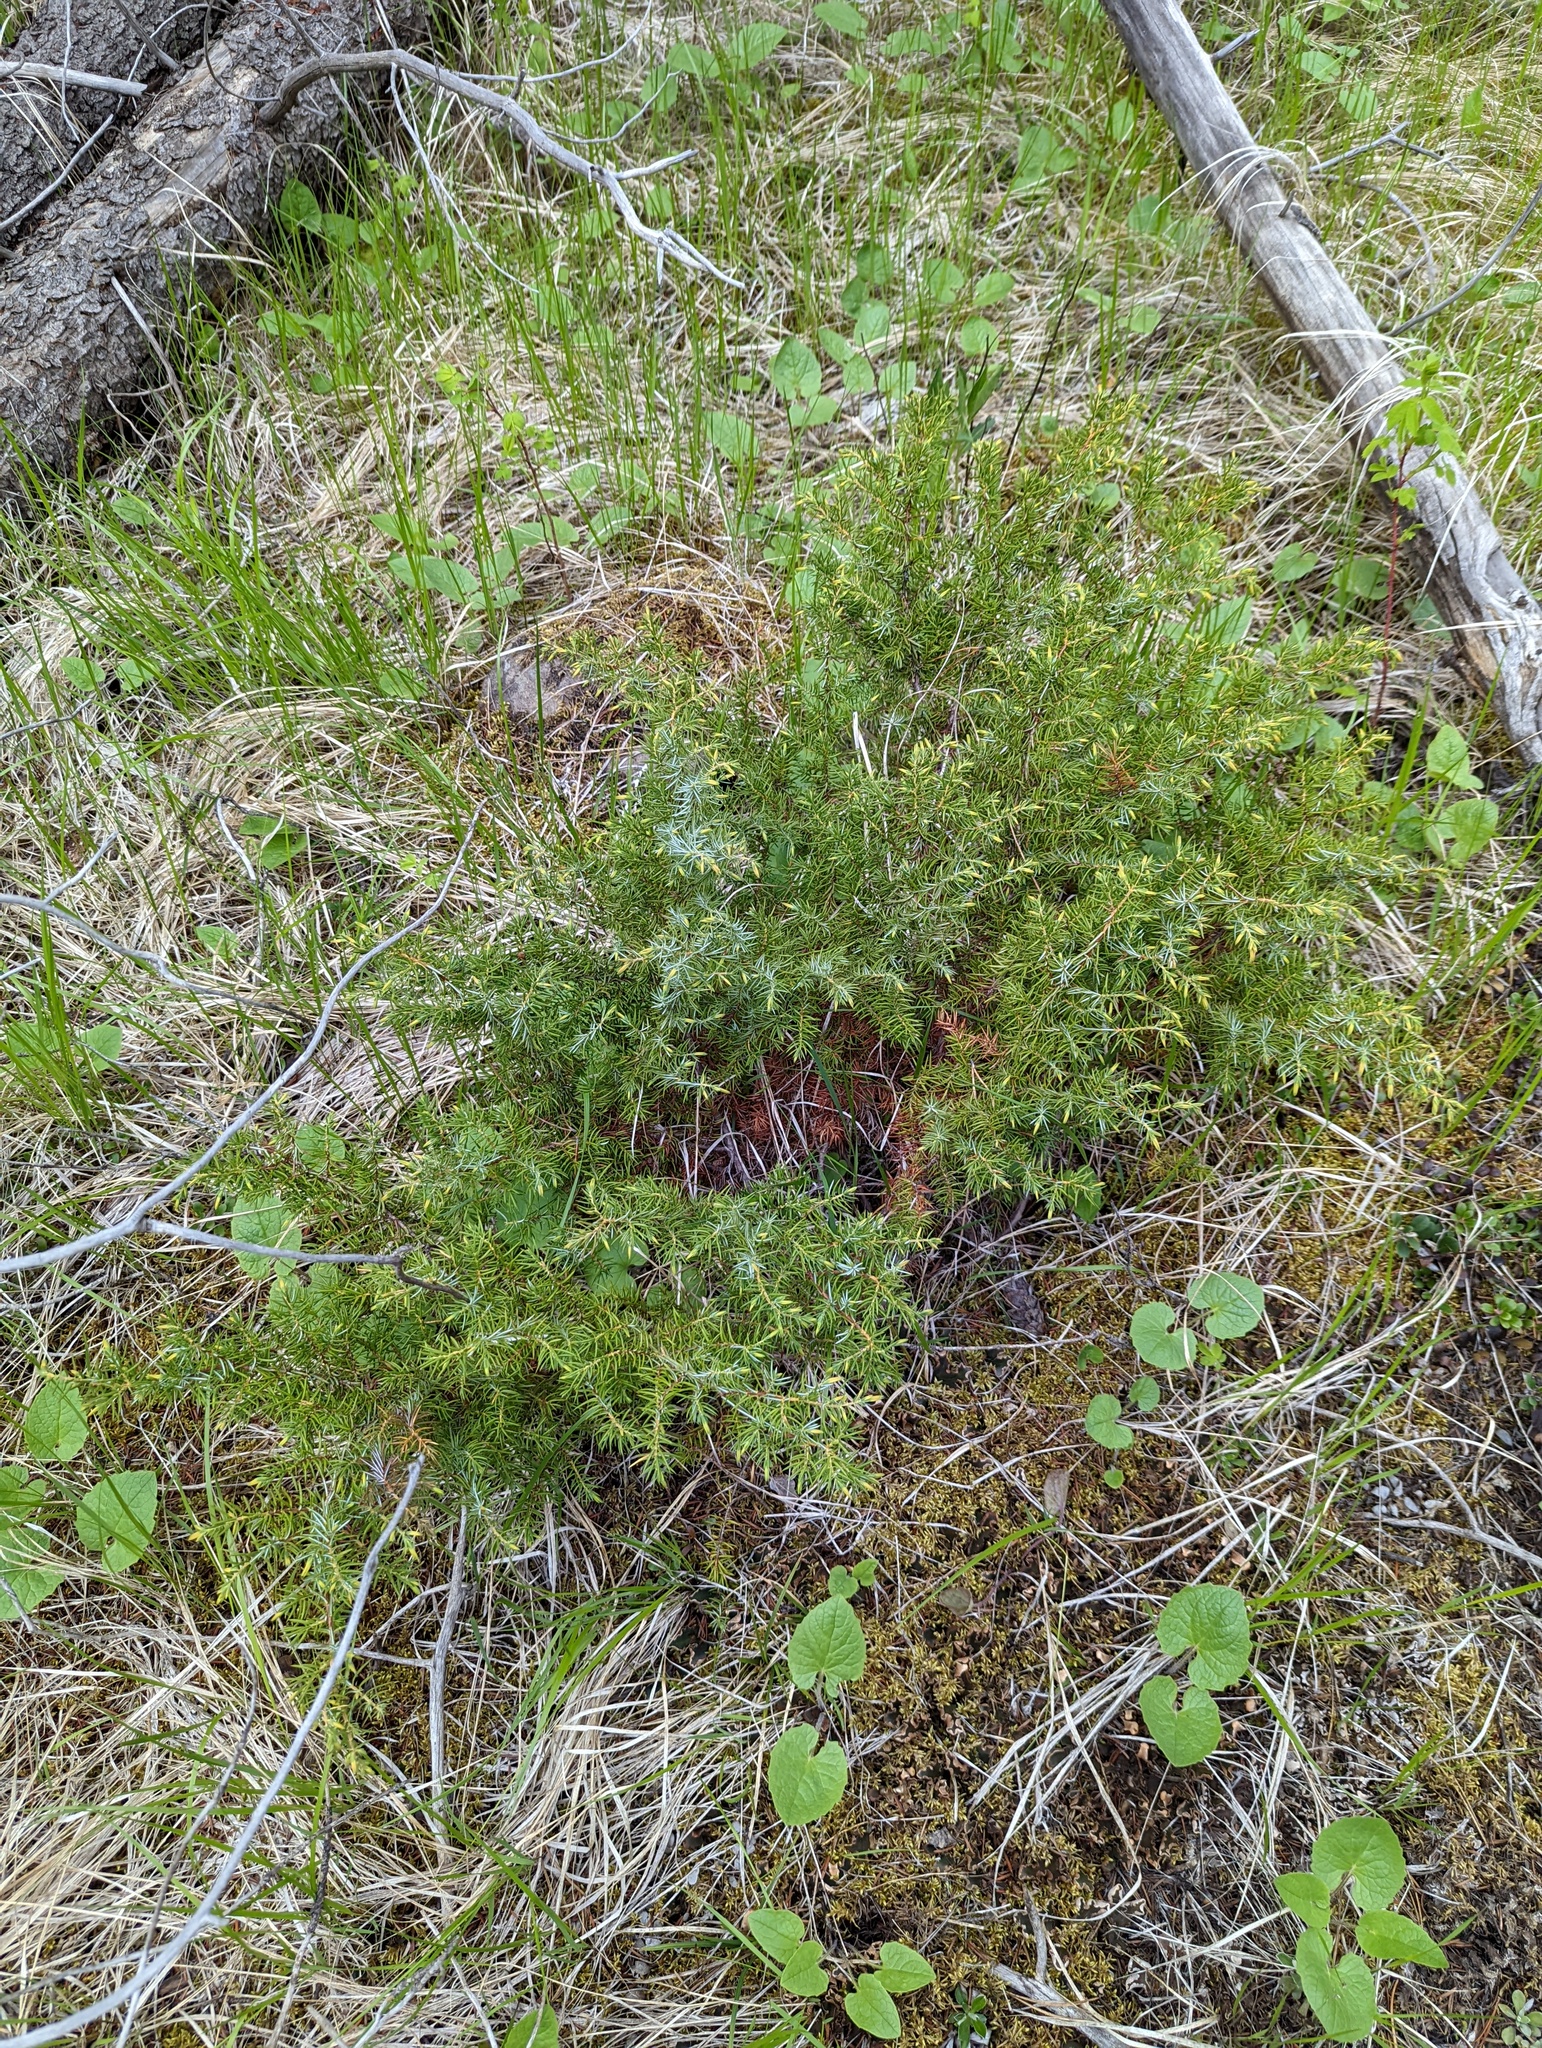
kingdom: Plantae
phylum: Tracheophyta
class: Pinopsida
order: Pinales
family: Cupressaceae
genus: Juniperus
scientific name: Juniperus communis
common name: Common juniper
